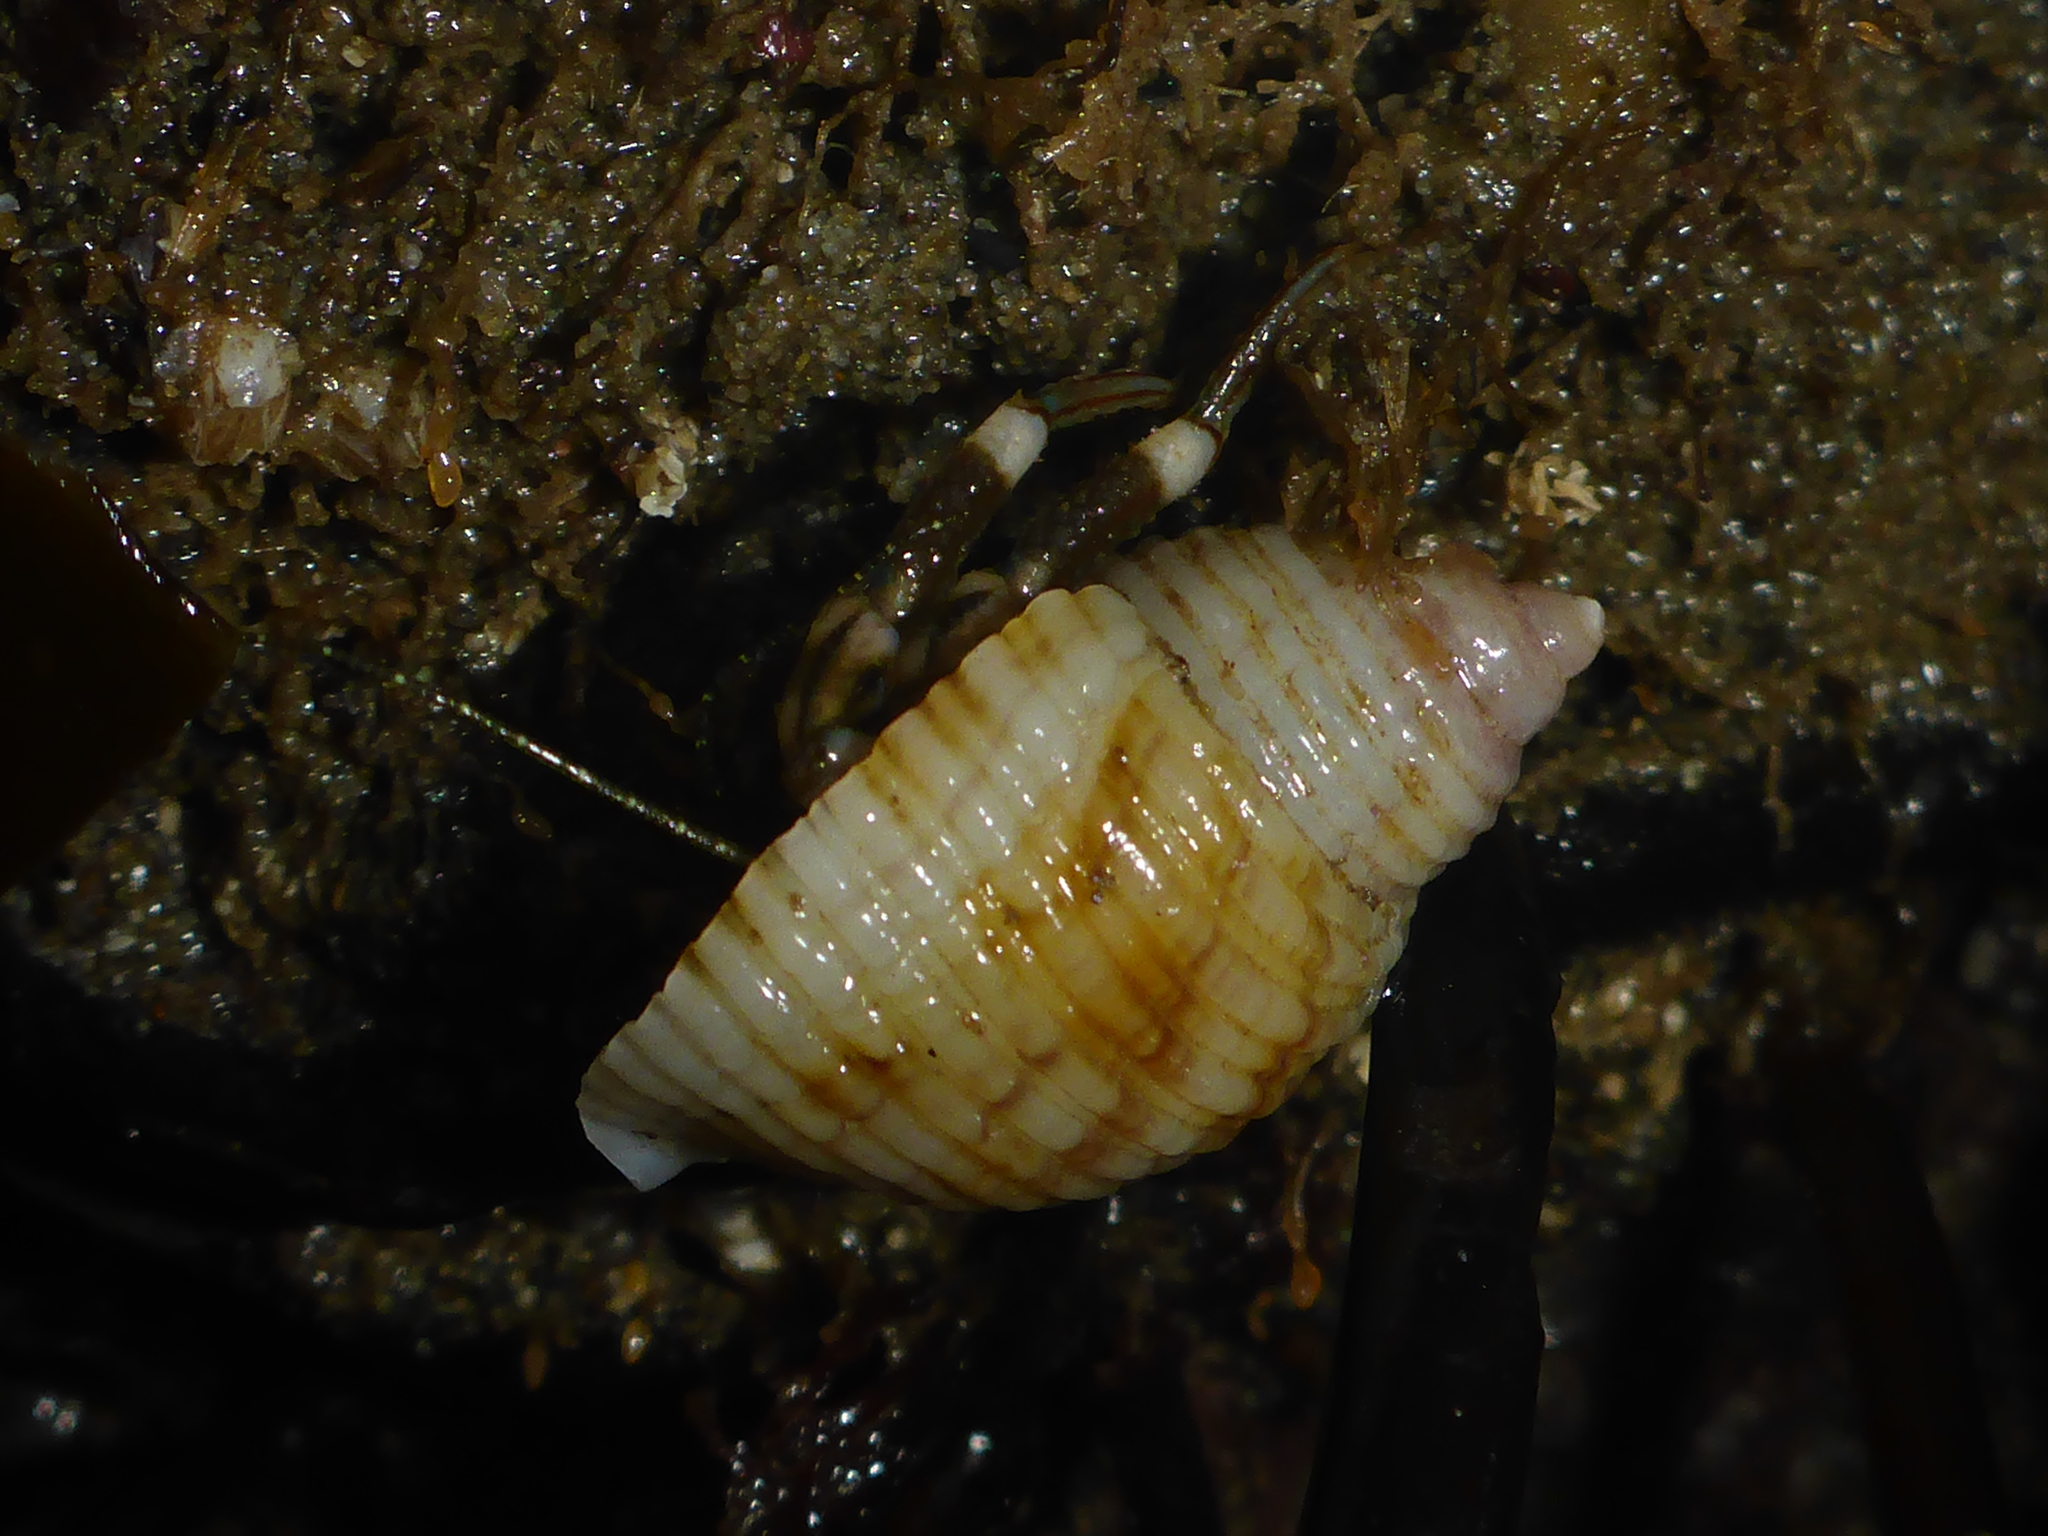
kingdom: Animalia
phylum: Arthropoda
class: Malacostraca
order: Decapoda
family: Paguridae
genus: Pagurus
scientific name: Pagurus hirsutiusculus
